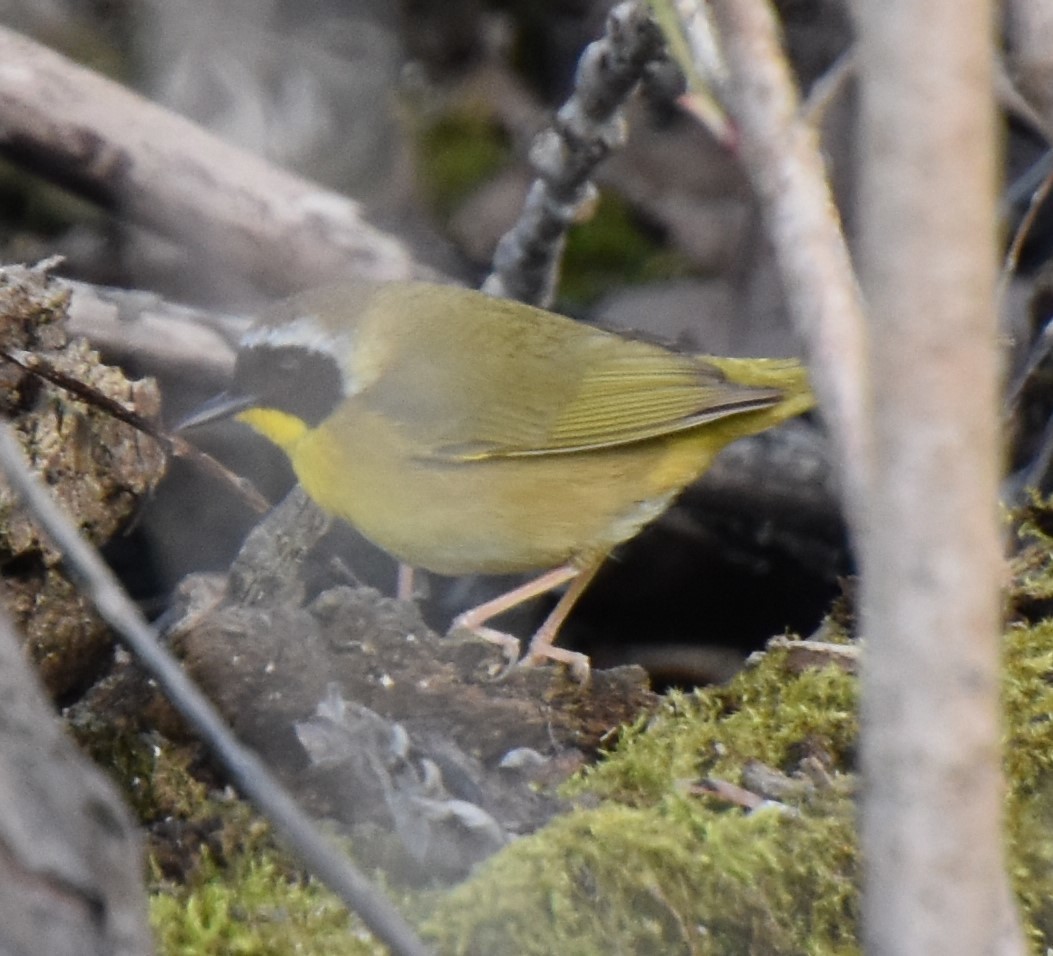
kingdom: Animalia
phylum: Chordata
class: Aves
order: Passeriformes
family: Parulidae
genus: Geothlypis
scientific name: Geothlypis trichas
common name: Common yellowthroat
